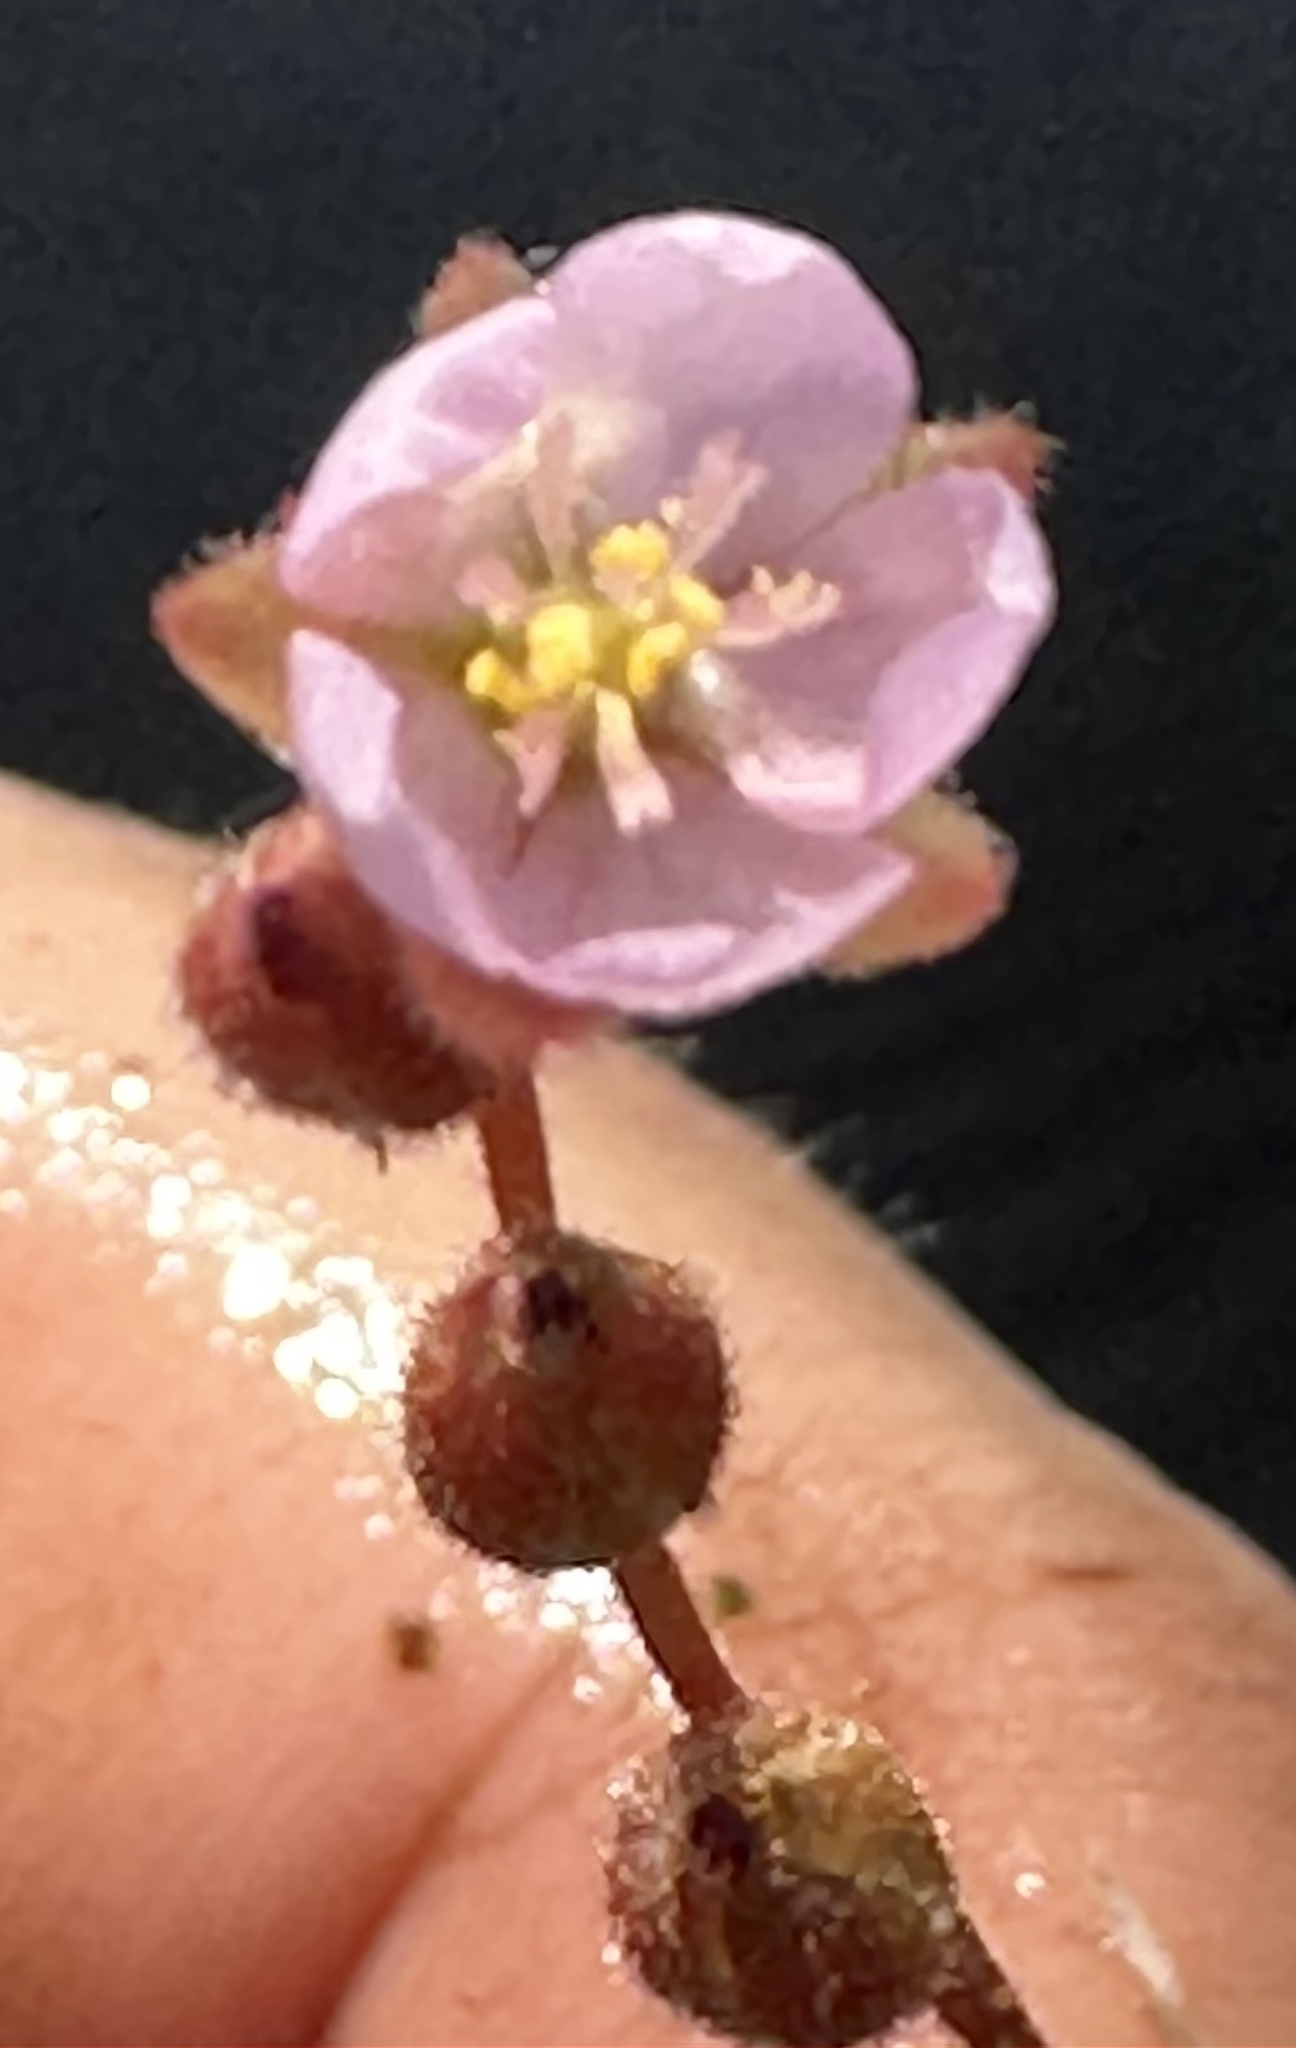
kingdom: Plantae
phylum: Tracheophyta
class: Magnoliopsida
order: Caryophyllales
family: Droseraceae
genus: Drosera
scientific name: Drosera madagascariensis
